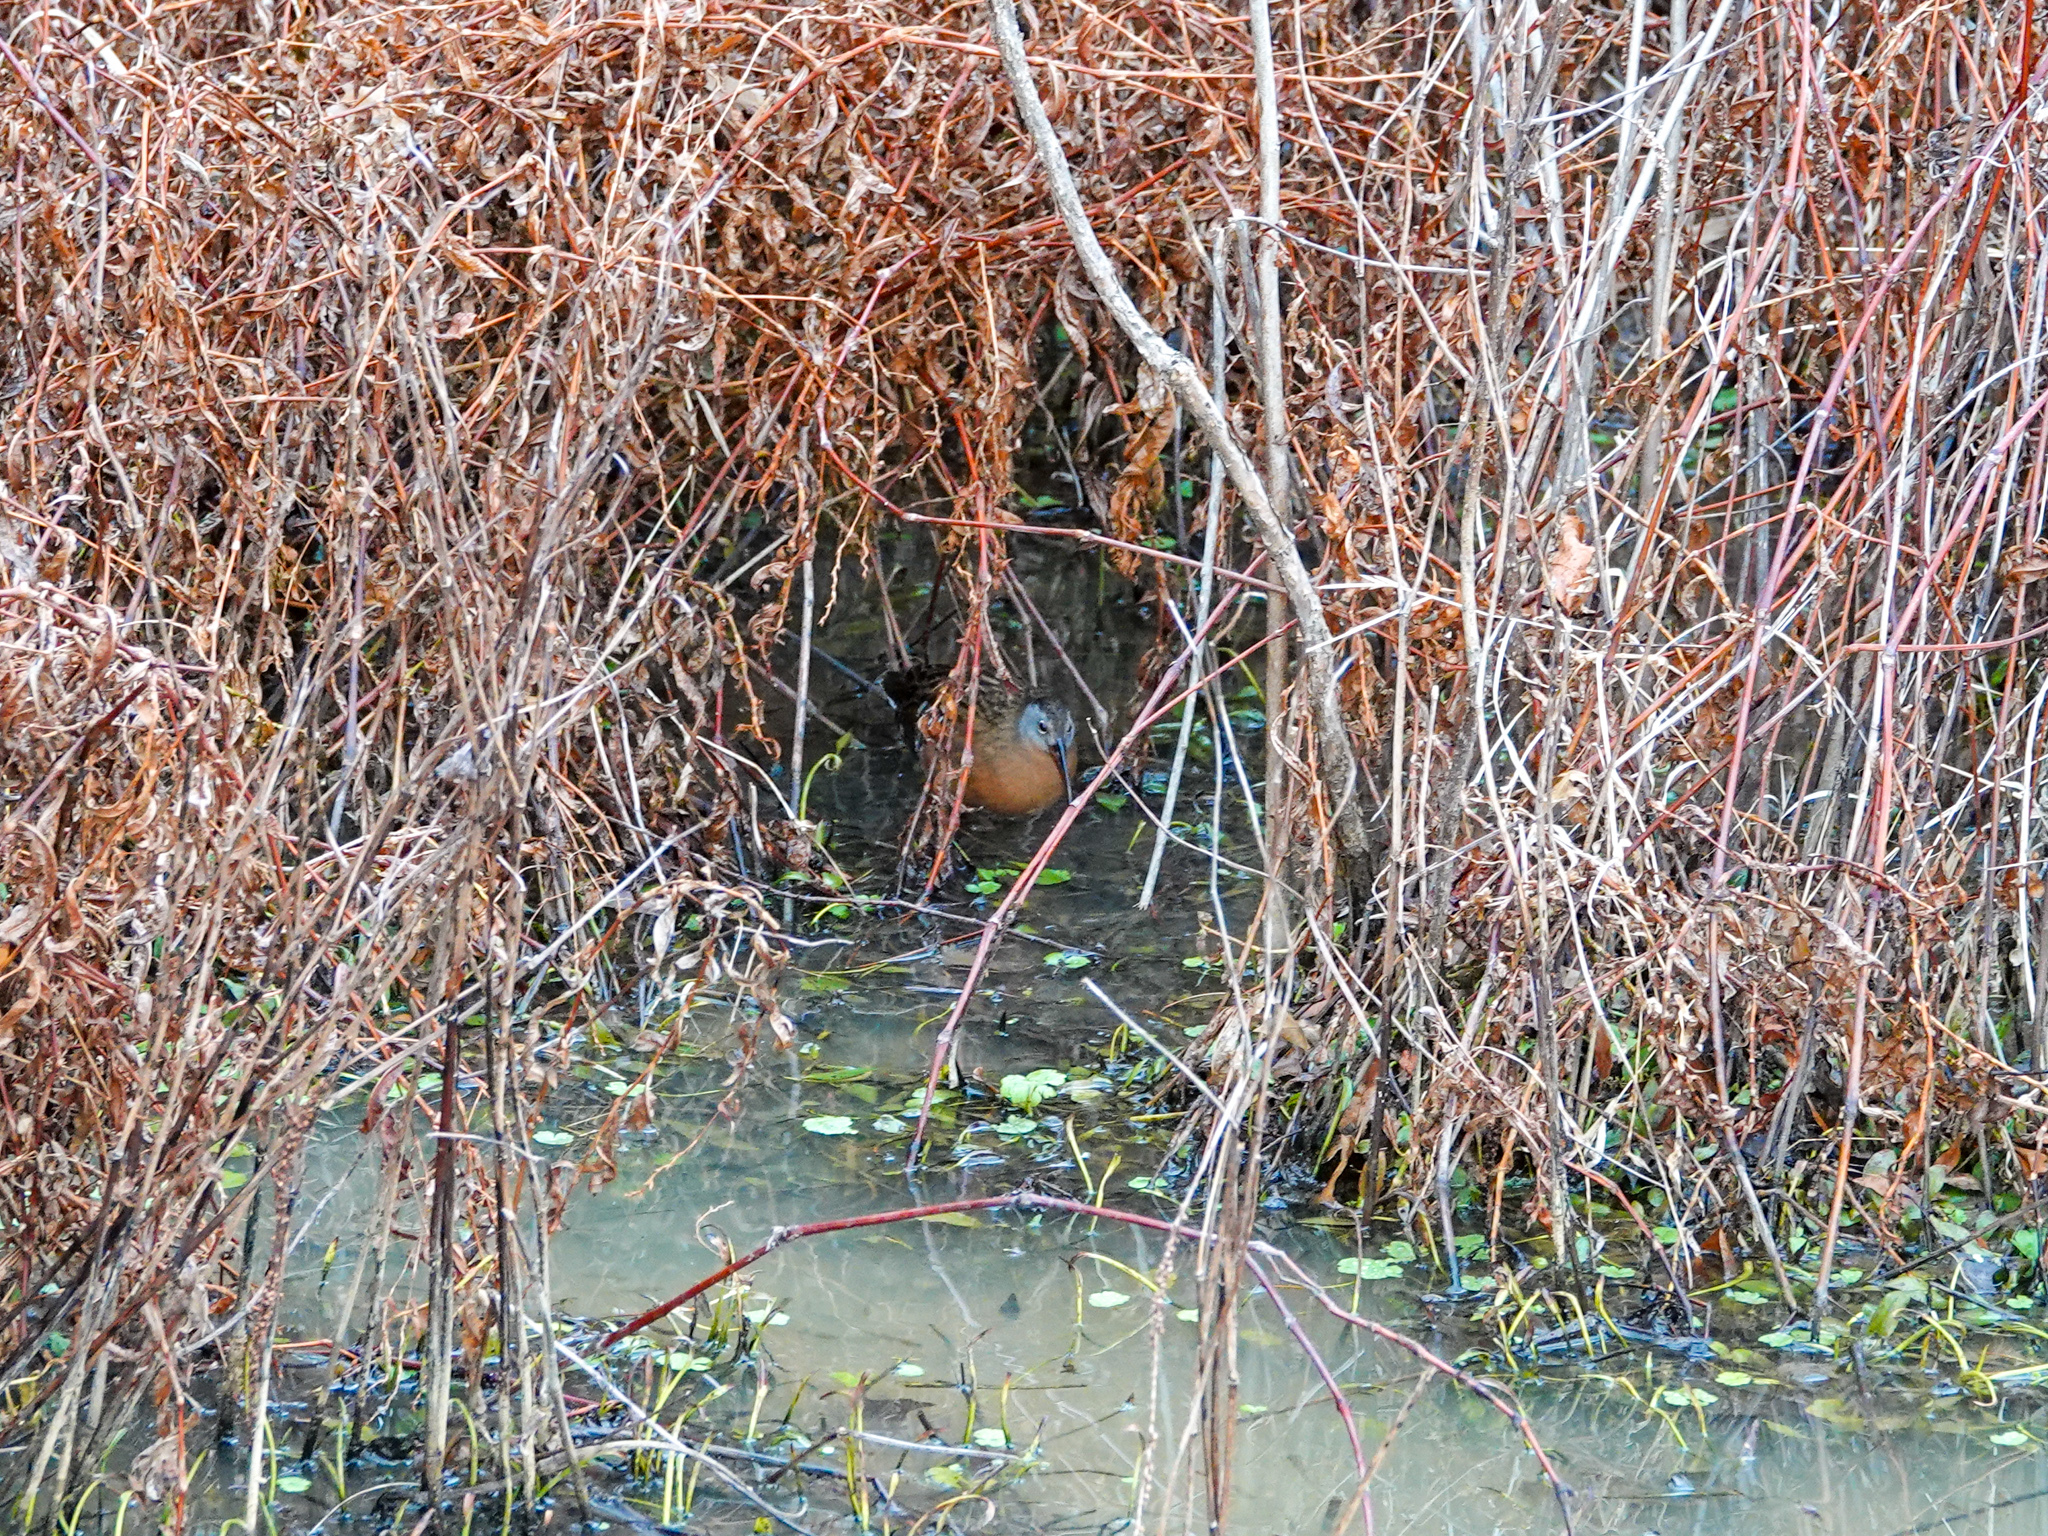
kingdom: Animalia
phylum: Chordata
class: Aves
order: Gruiformes
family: Rallidae
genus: Rallus
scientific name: Rallus limicola
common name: Virginia rail
